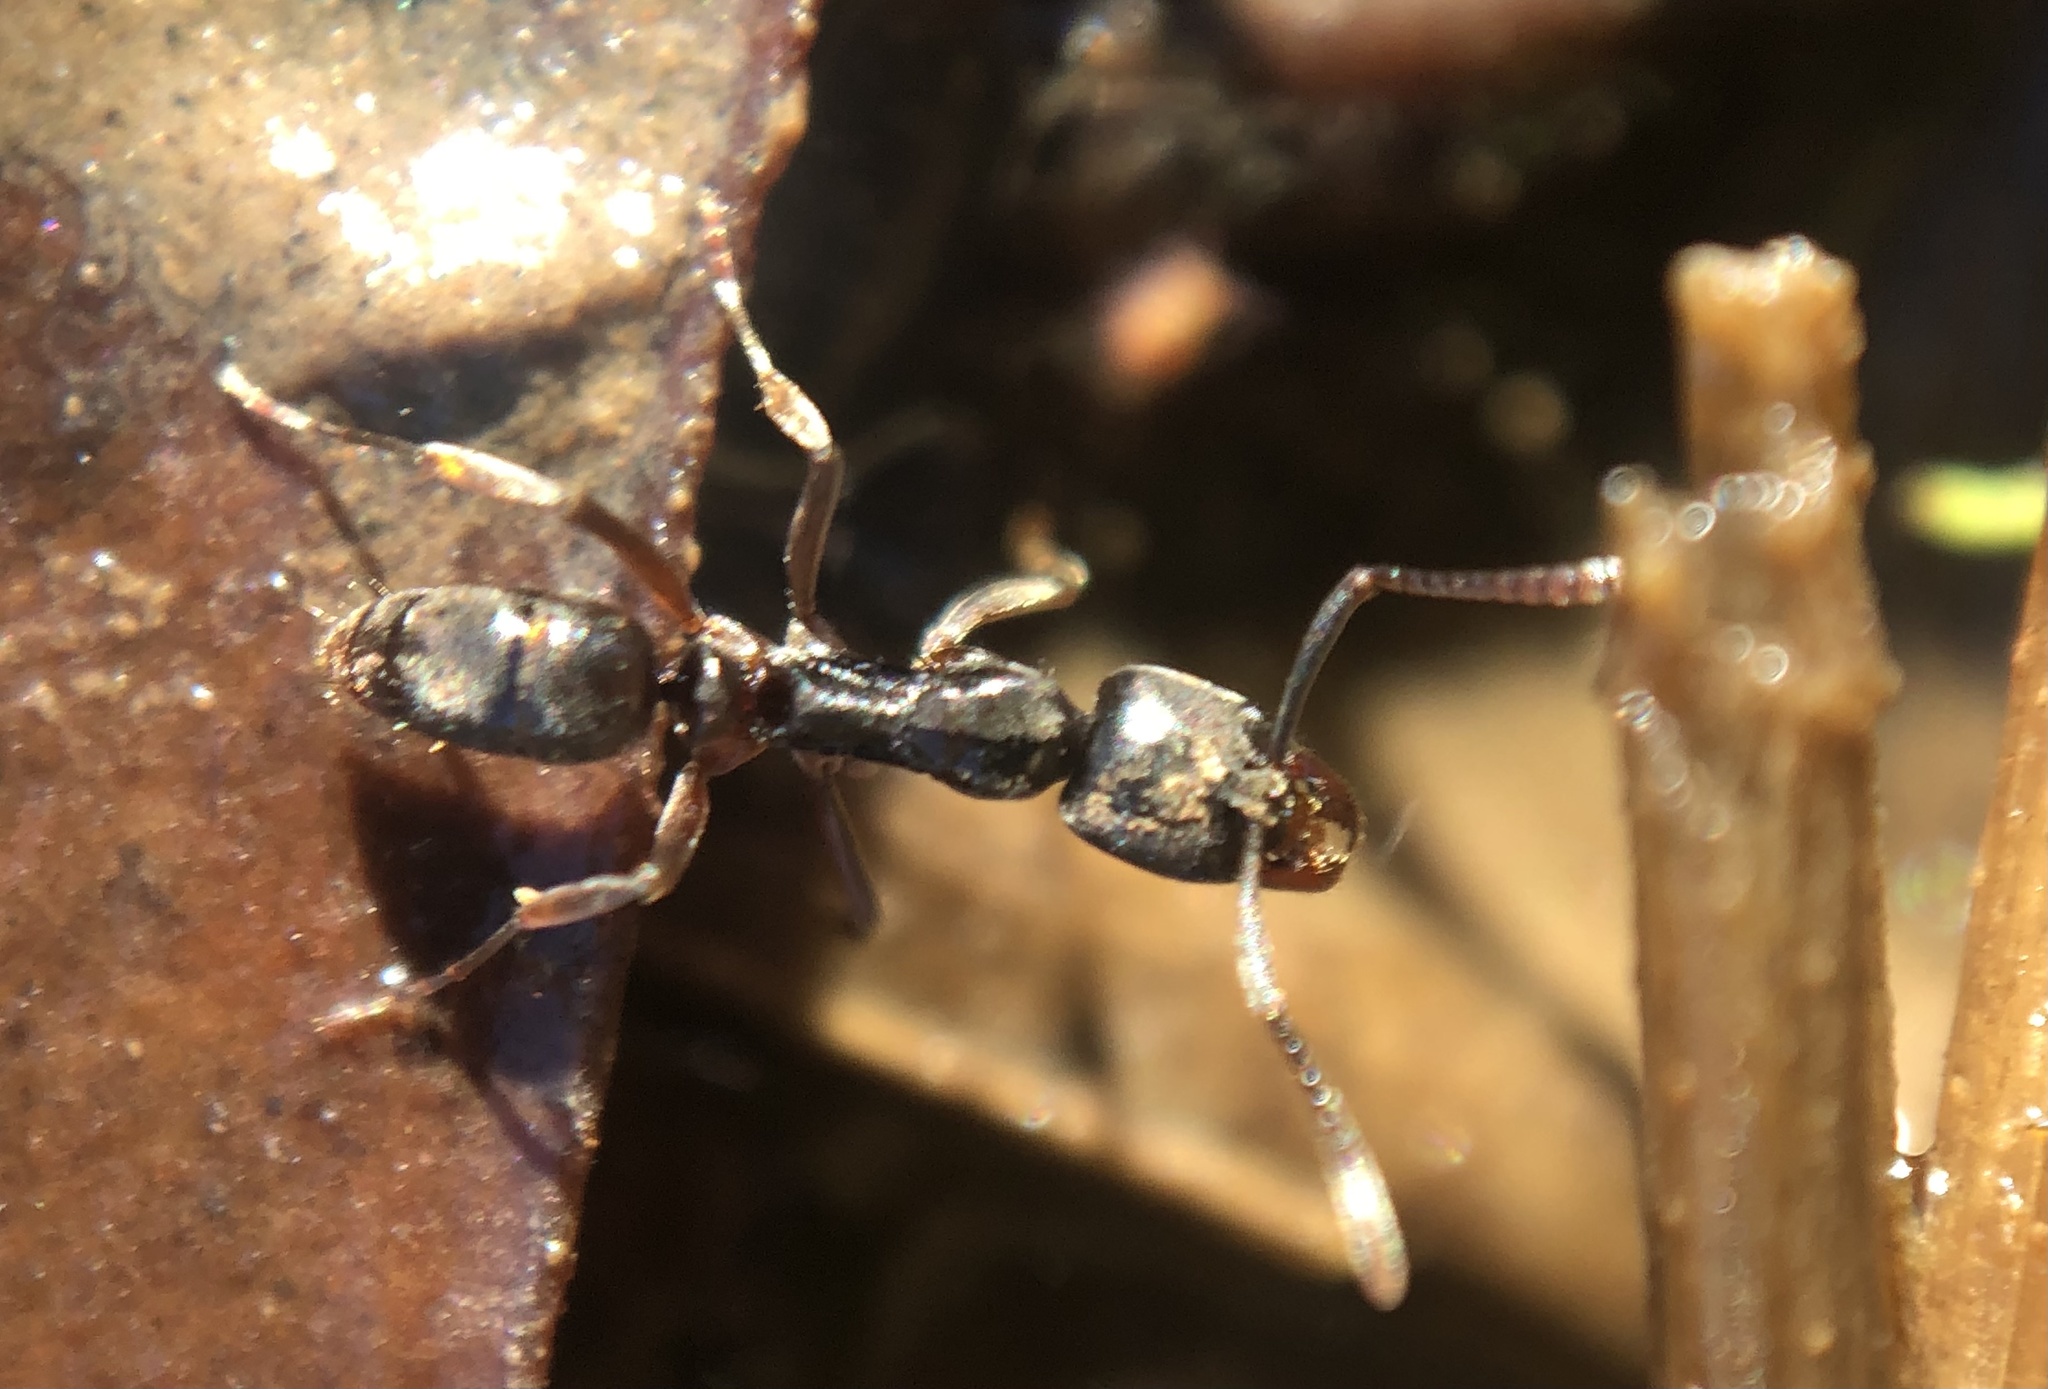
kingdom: Animalia
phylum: Arthropoda
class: Insecta
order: Hymenoptera
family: Formicidae
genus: Pachycondyla
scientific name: Pachycondyla chinensis
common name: Asian needle ant
